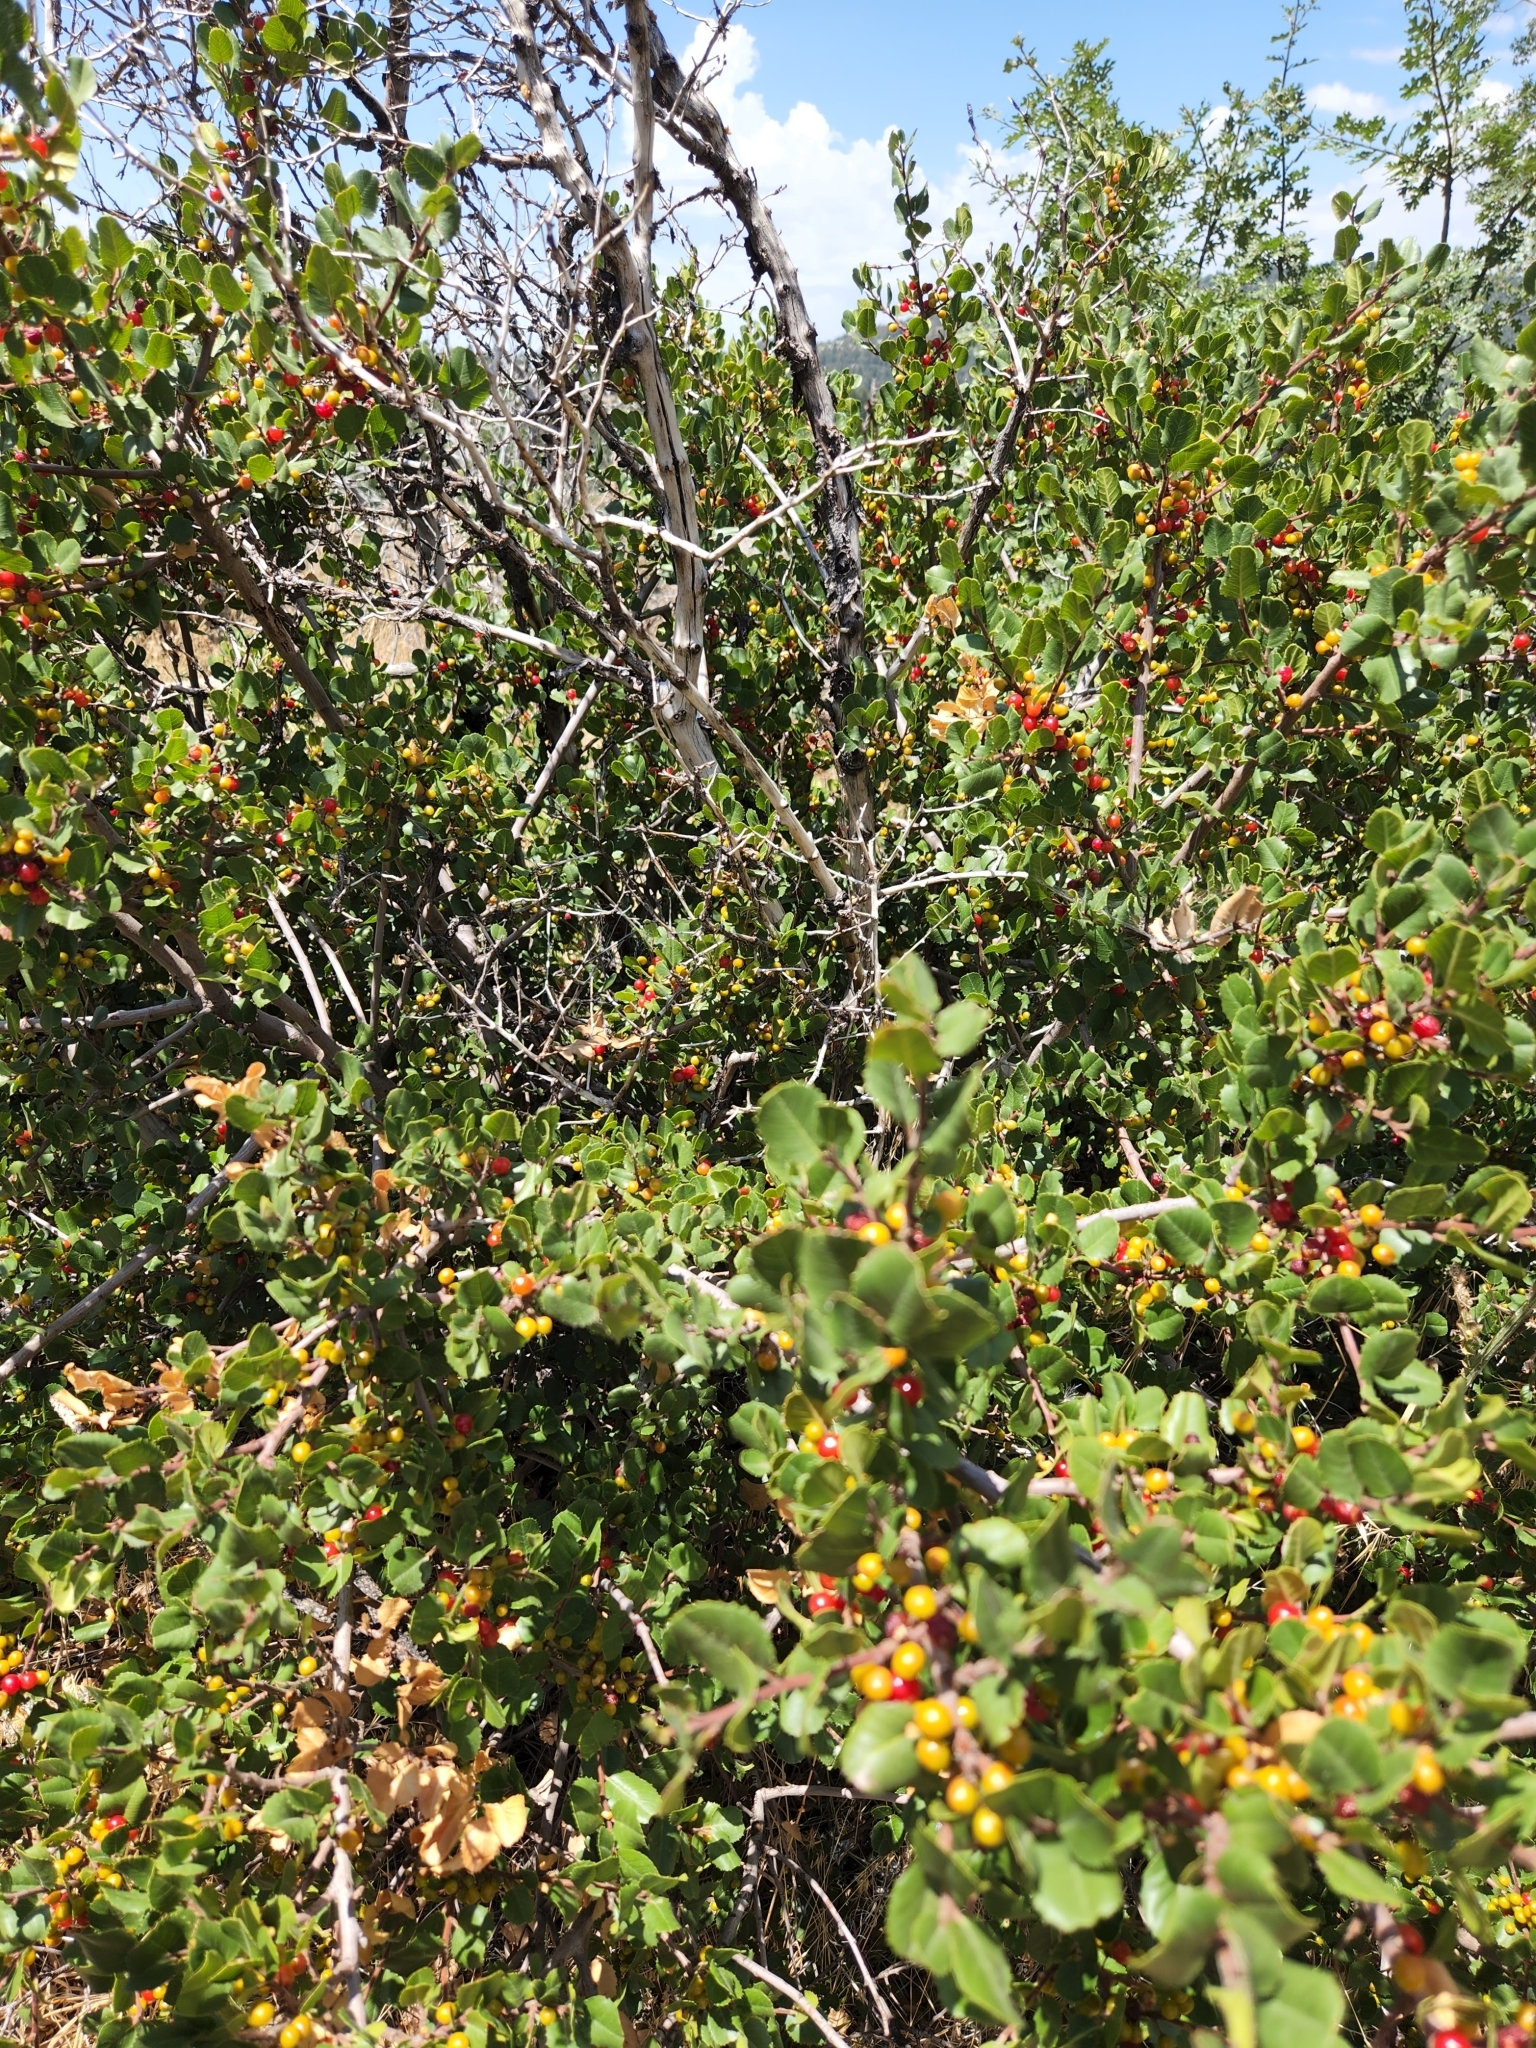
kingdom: Plantae
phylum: Tracheophyta
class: Magnoliopsida
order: Rosales
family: Rhamnaceae
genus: Endotropis
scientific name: Endotropis crocea
